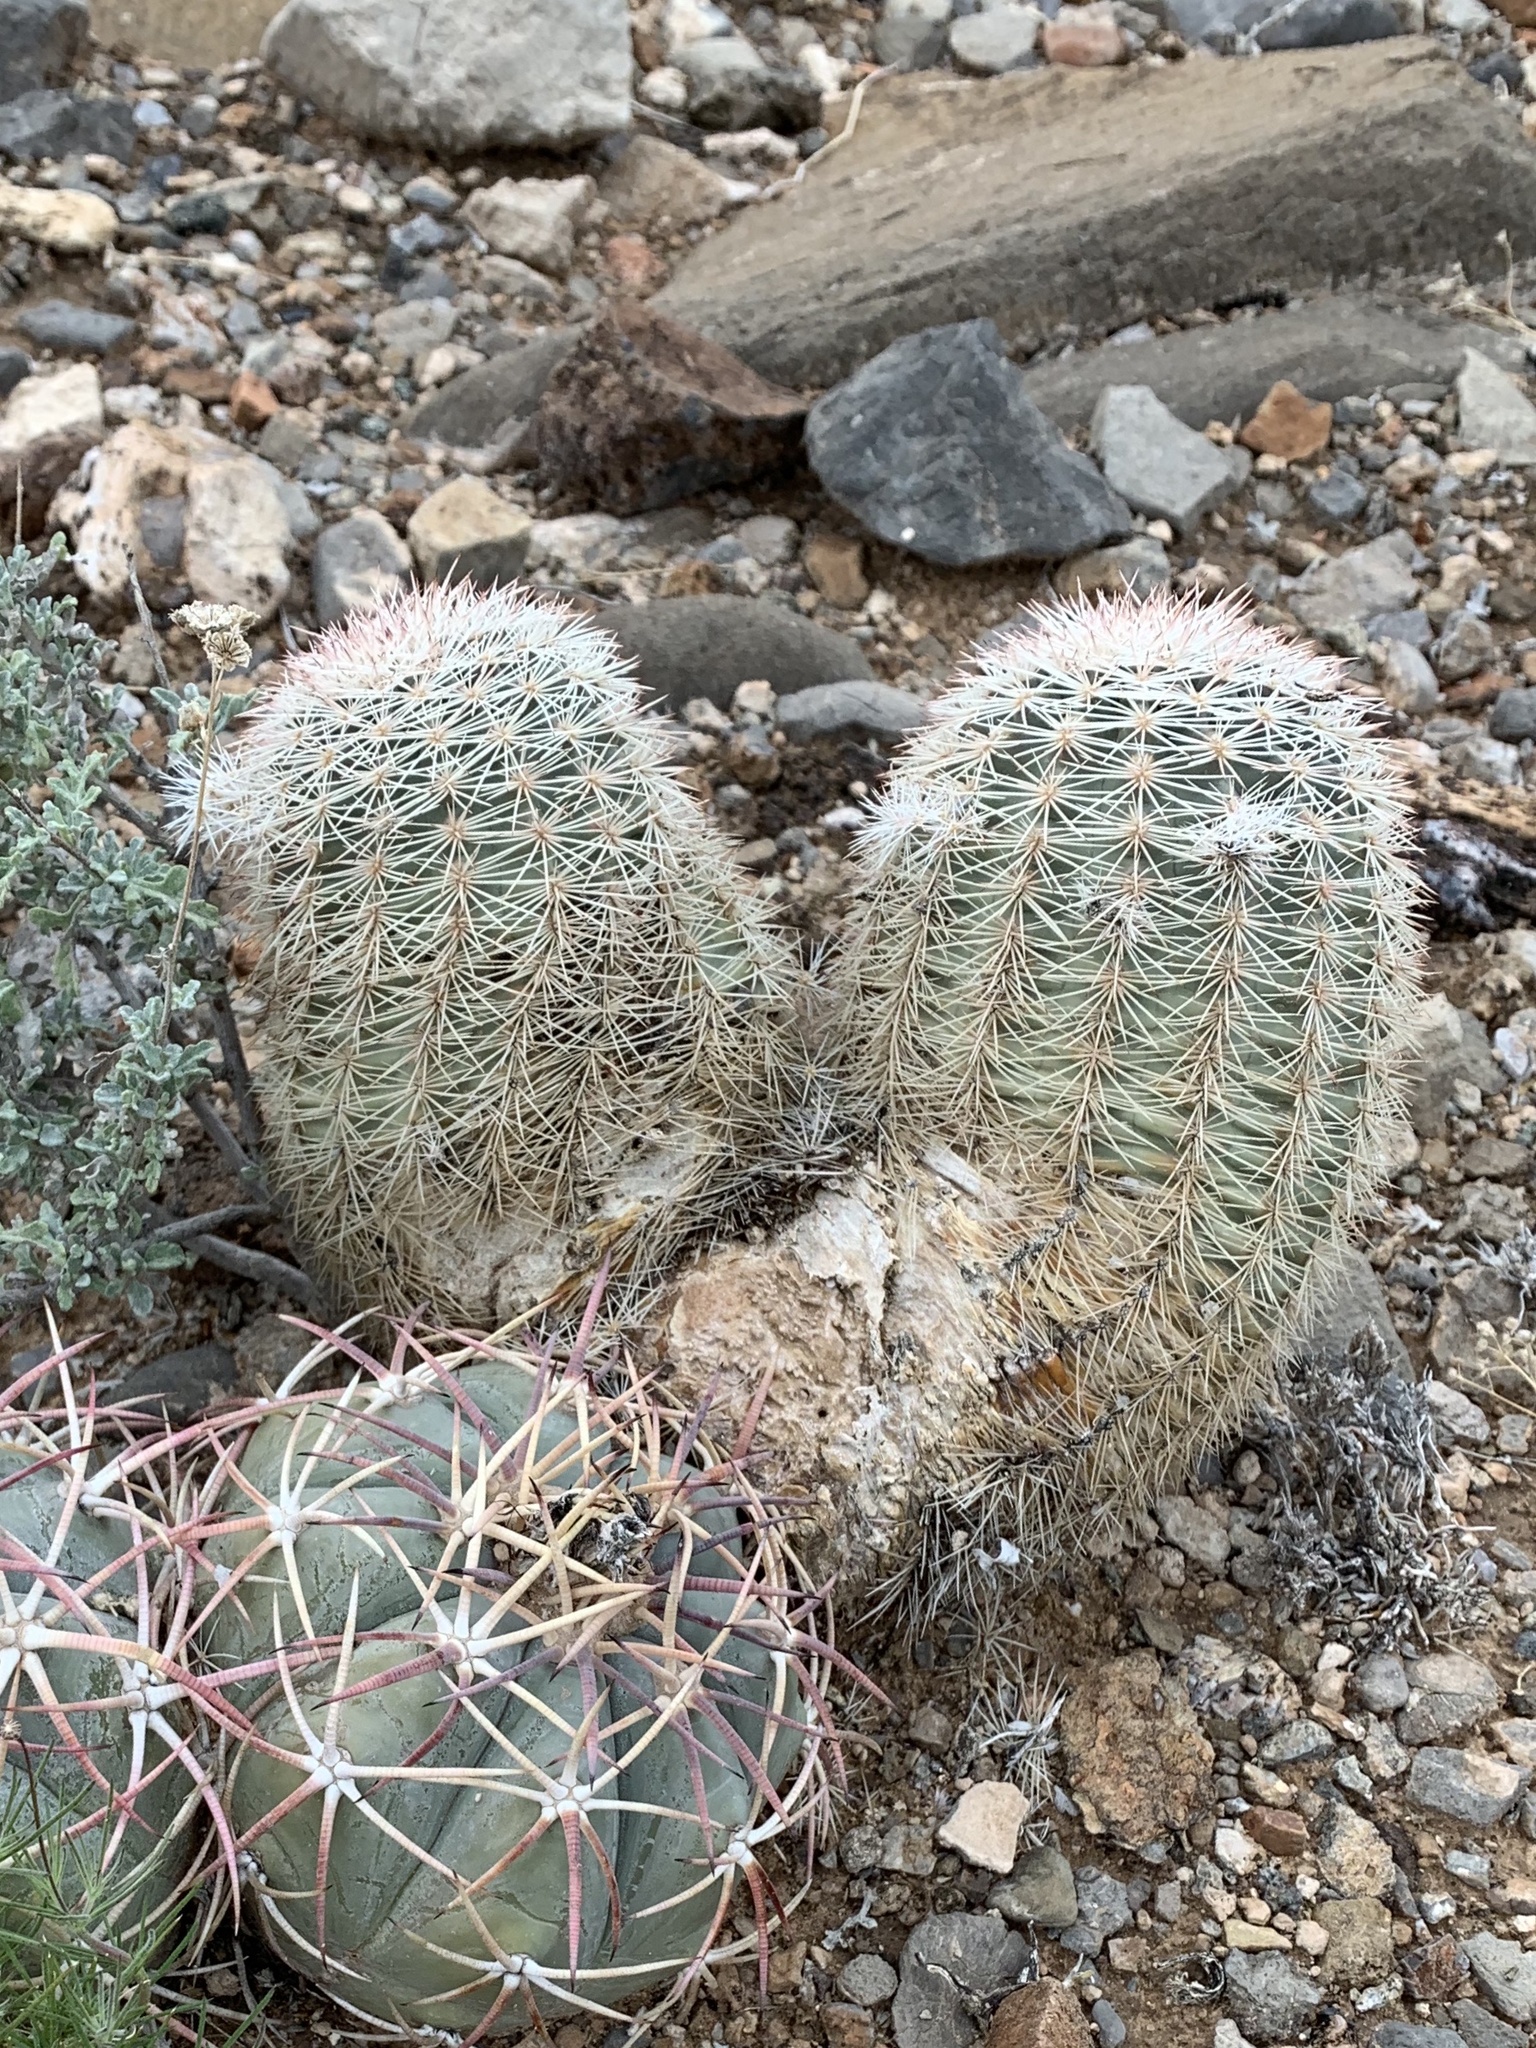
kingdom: Plantae
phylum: Tracheophyta
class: Magnoliopsida
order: Caryophyllales
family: Cactaceae
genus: Echinocereus
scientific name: Echinocereus dasyacanthus
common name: Spiny hedgehog cactus
